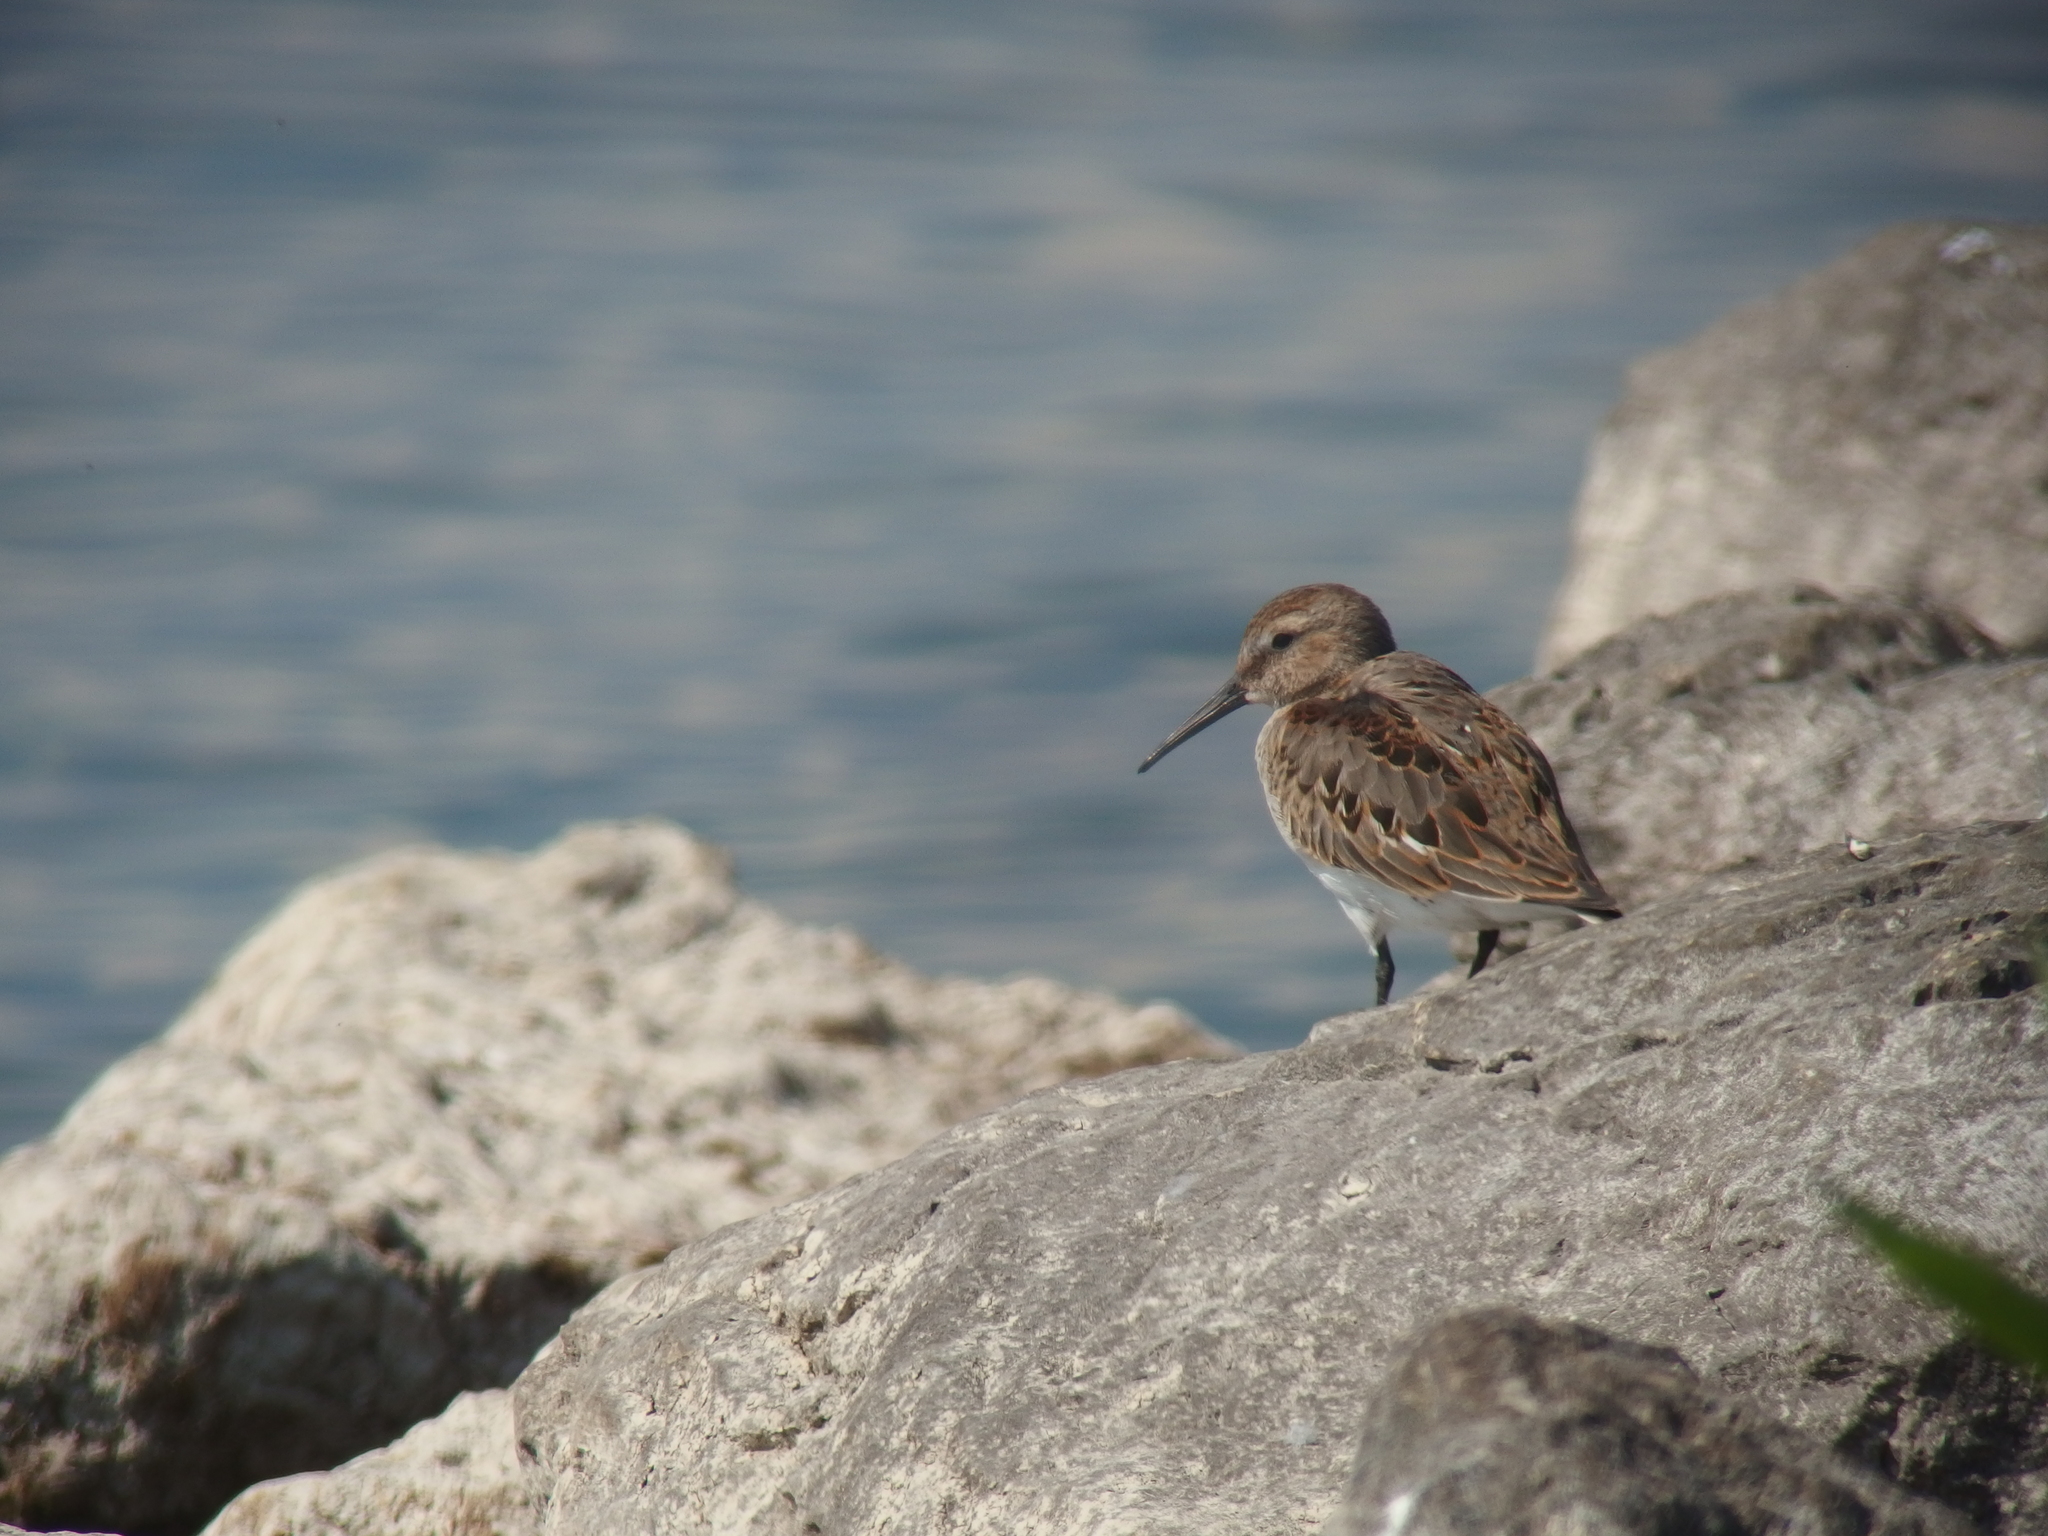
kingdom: Animalia
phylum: Chordata
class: Aves
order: Charadriiformes
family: Scolopacidae
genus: Calidris
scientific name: Calidris alpina
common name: Dunlin
